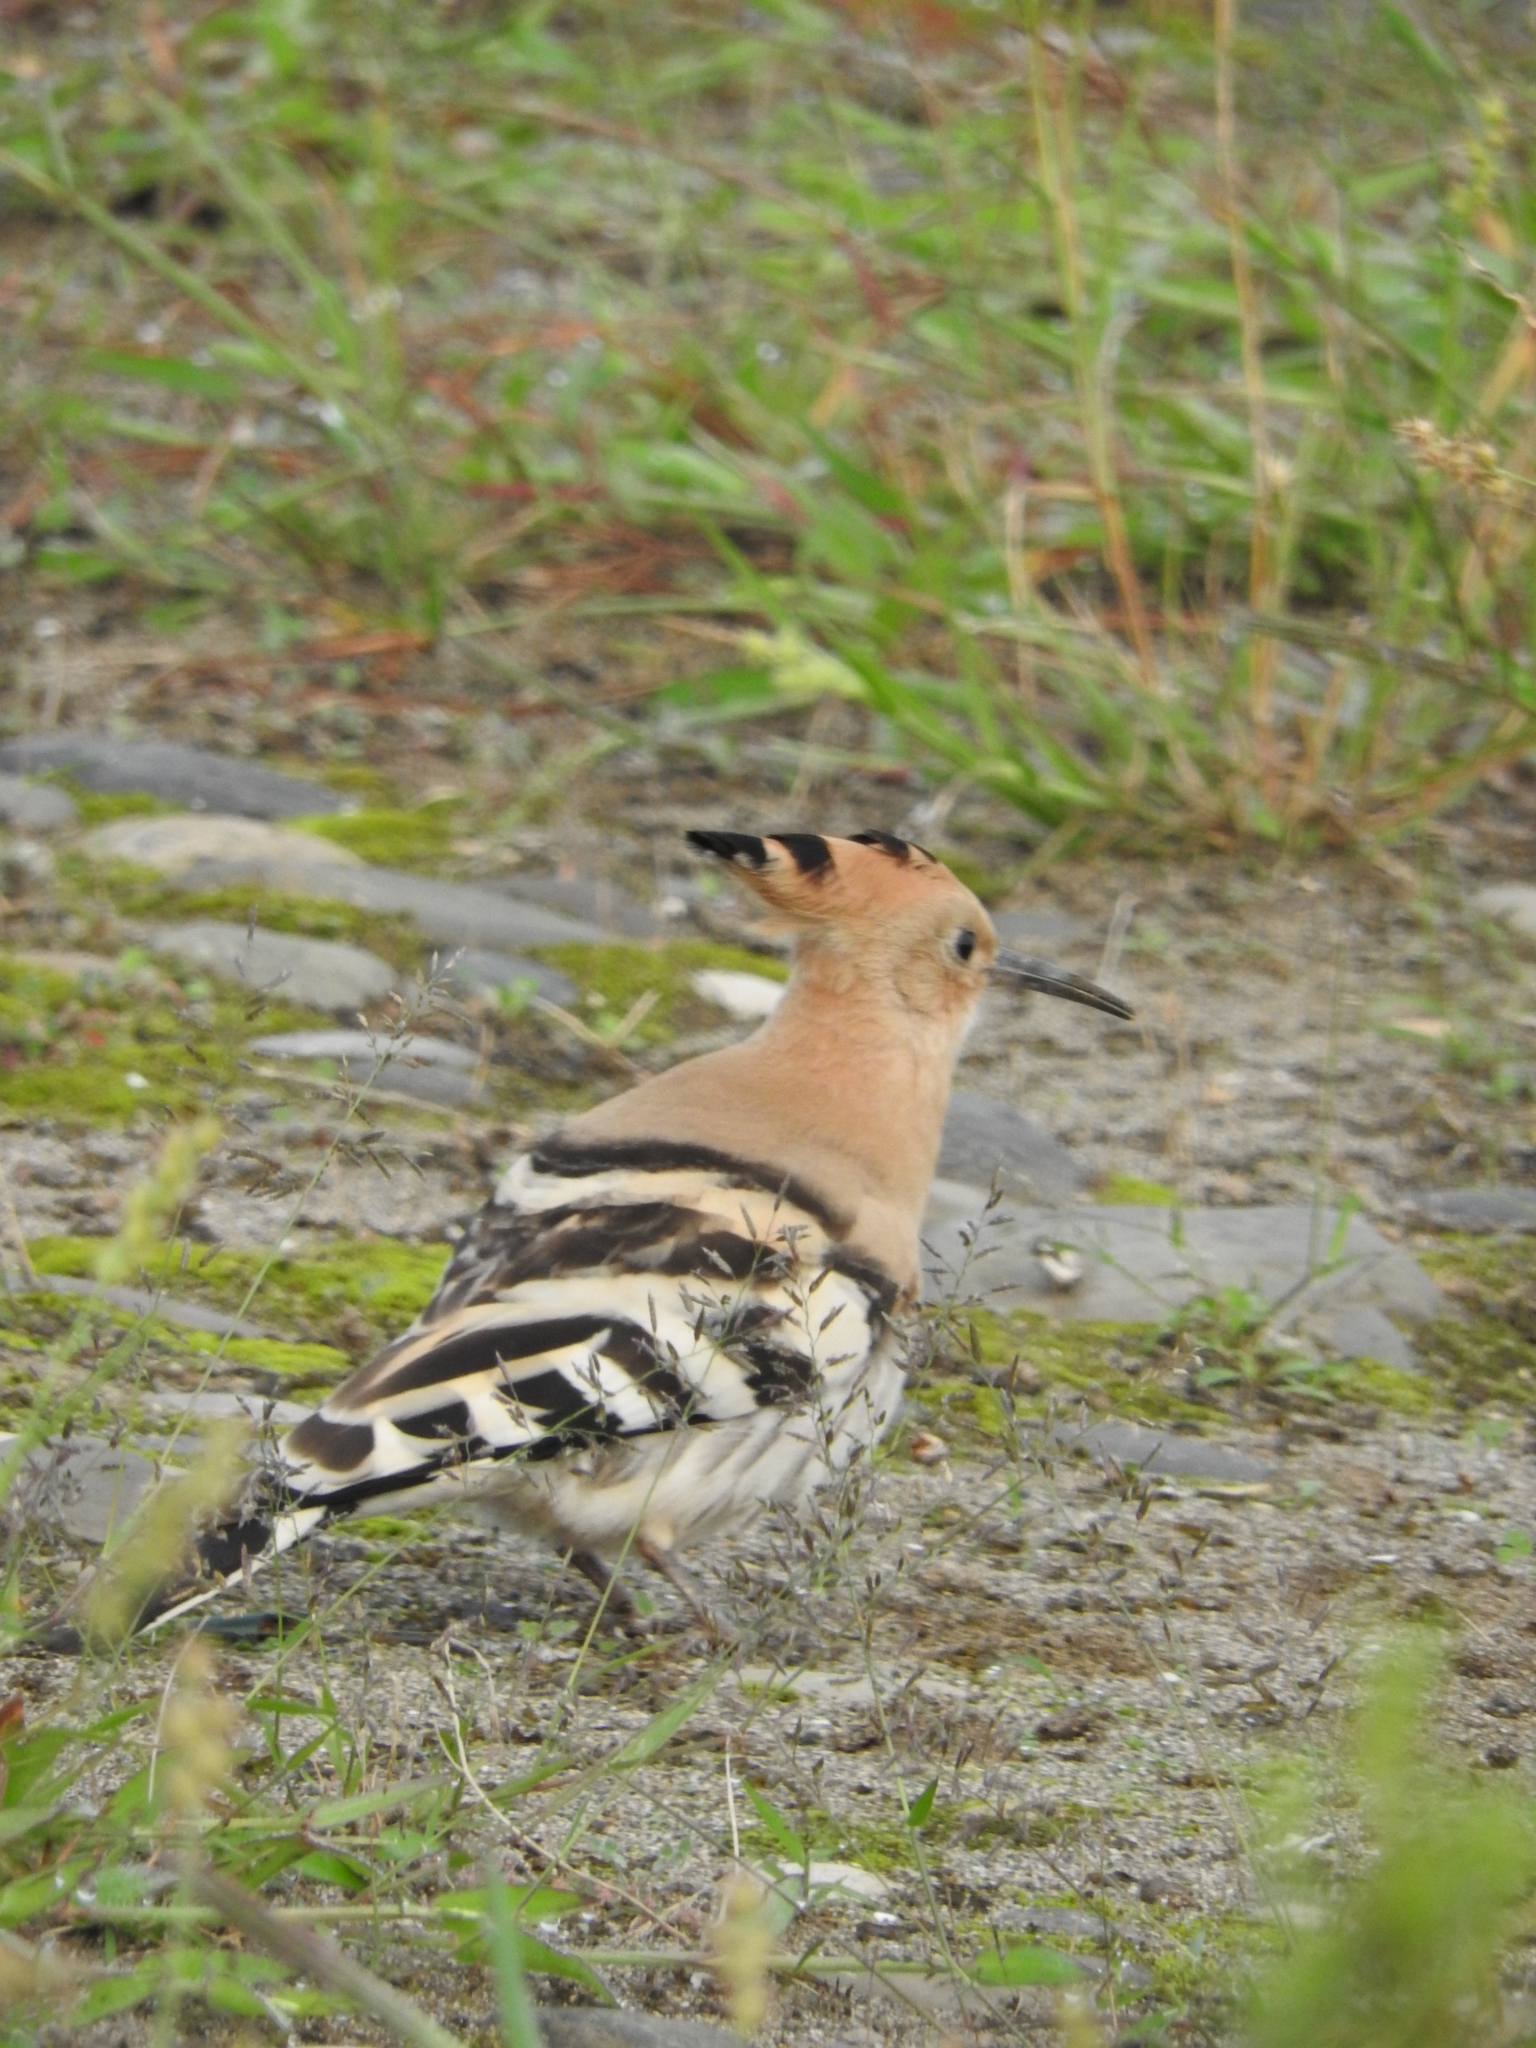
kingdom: Animalia
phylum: Chordata
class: Aves
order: Bucerotiformes
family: Upupidae
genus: Upupa
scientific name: Upupa epops
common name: Eurasian hoopoe
